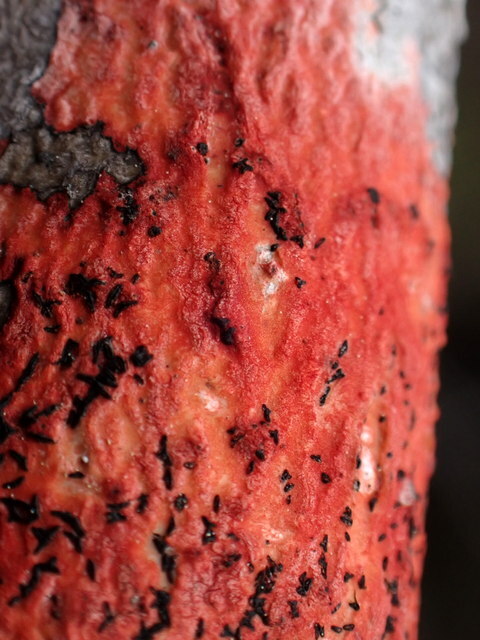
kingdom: Fungi
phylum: Ascomycota
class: Eurotiomycetes
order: Pyrenulales
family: Pyrenulaceae
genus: Pyrenula
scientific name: Pyrenula cruenta
